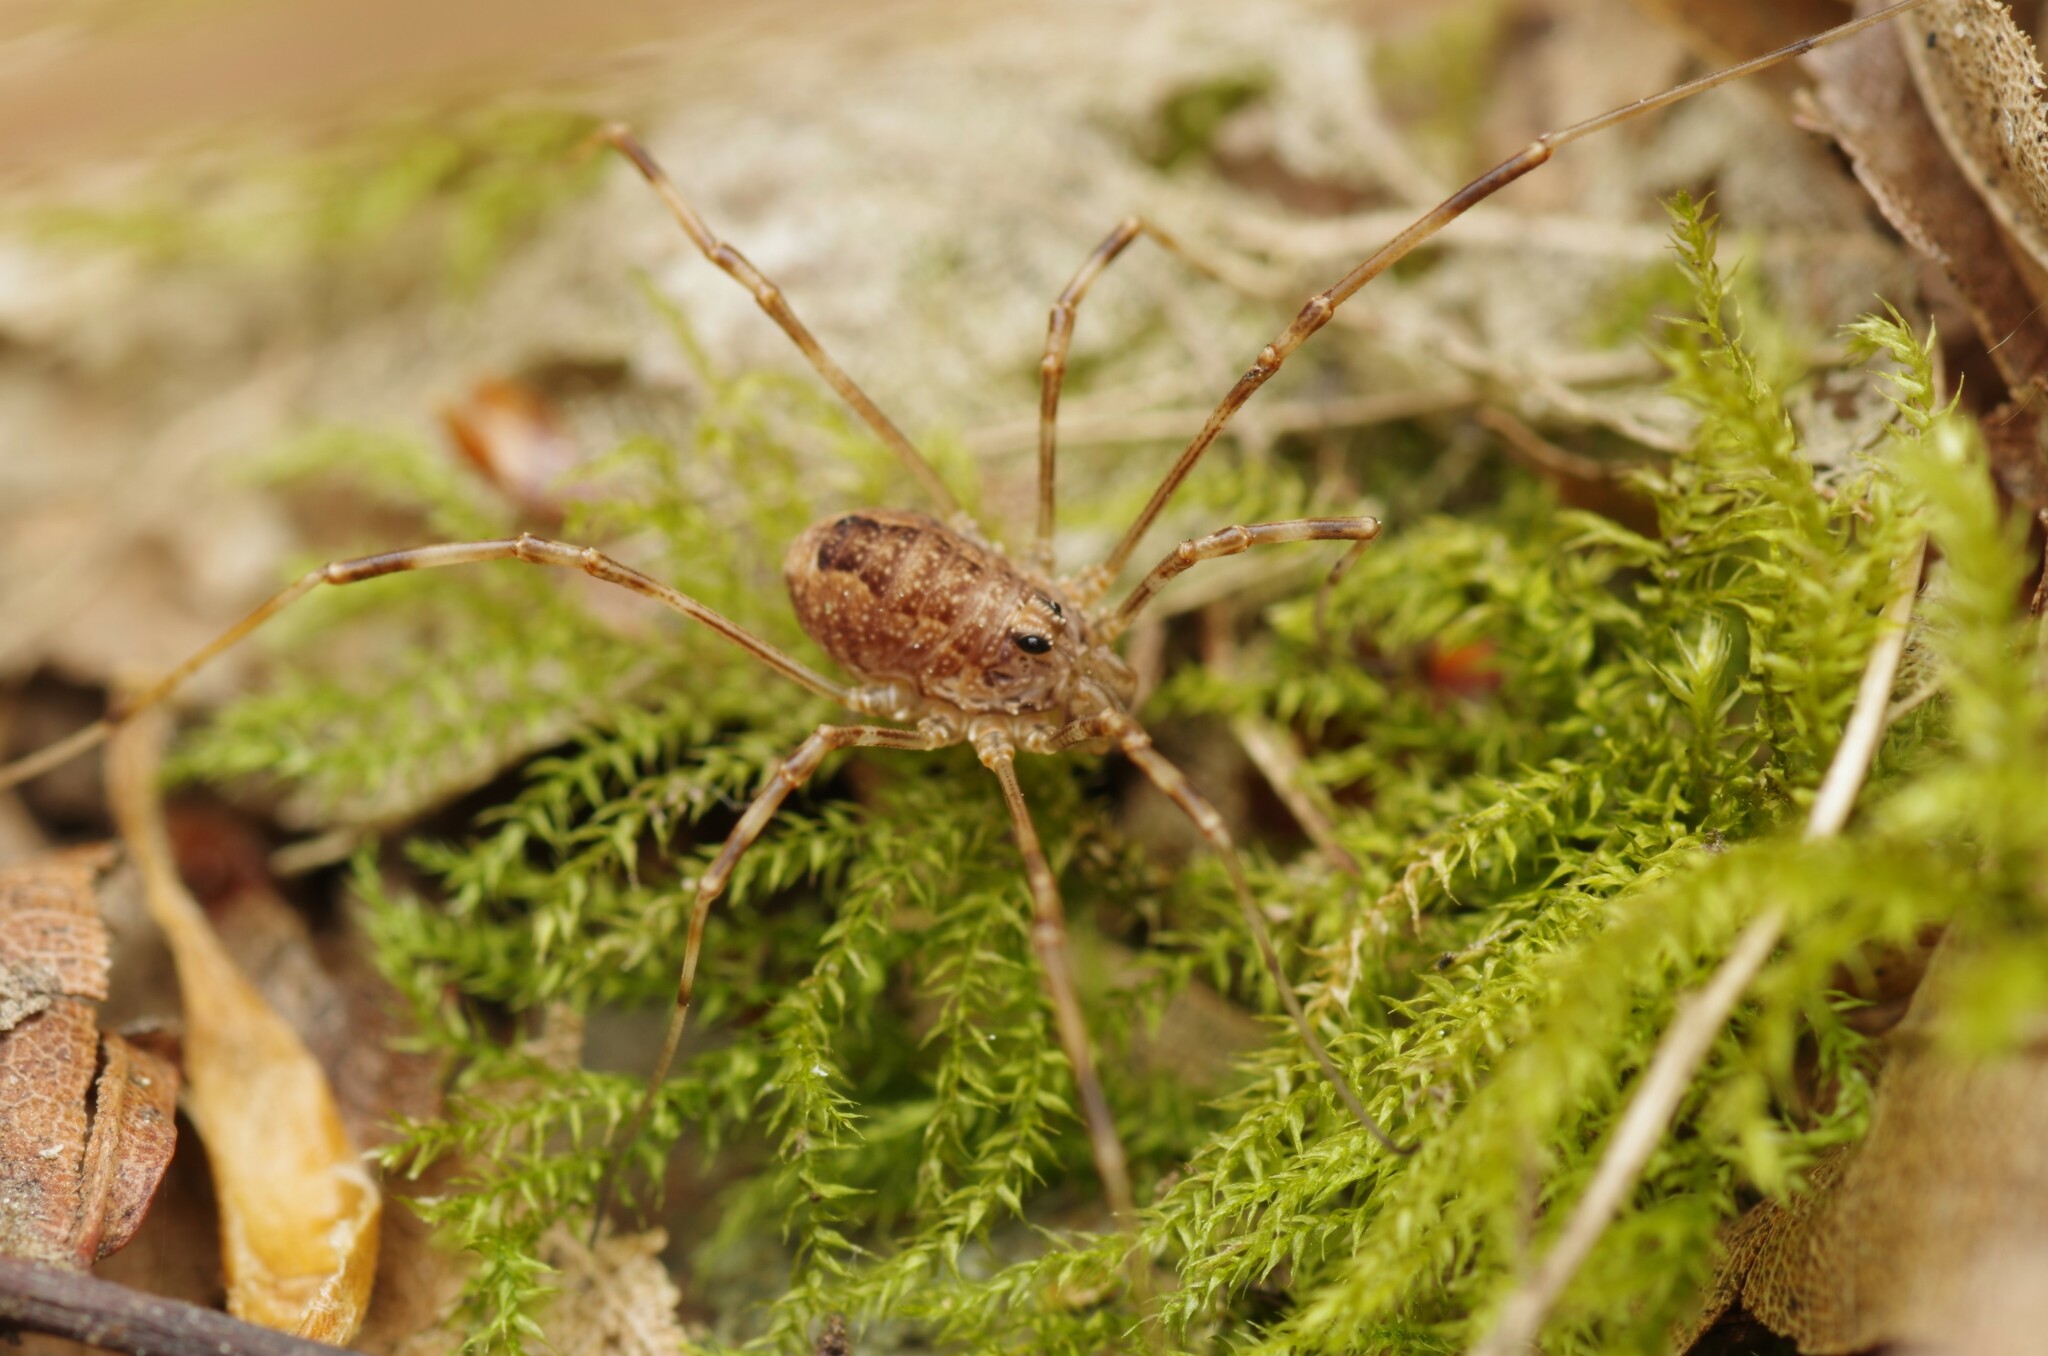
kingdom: Animalia
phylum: Arthropoda
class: Arachnida
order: Opiliones
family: Phalangiidae
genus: Rilaena
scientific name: Rilaena triangularis
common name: Spring harvestman
